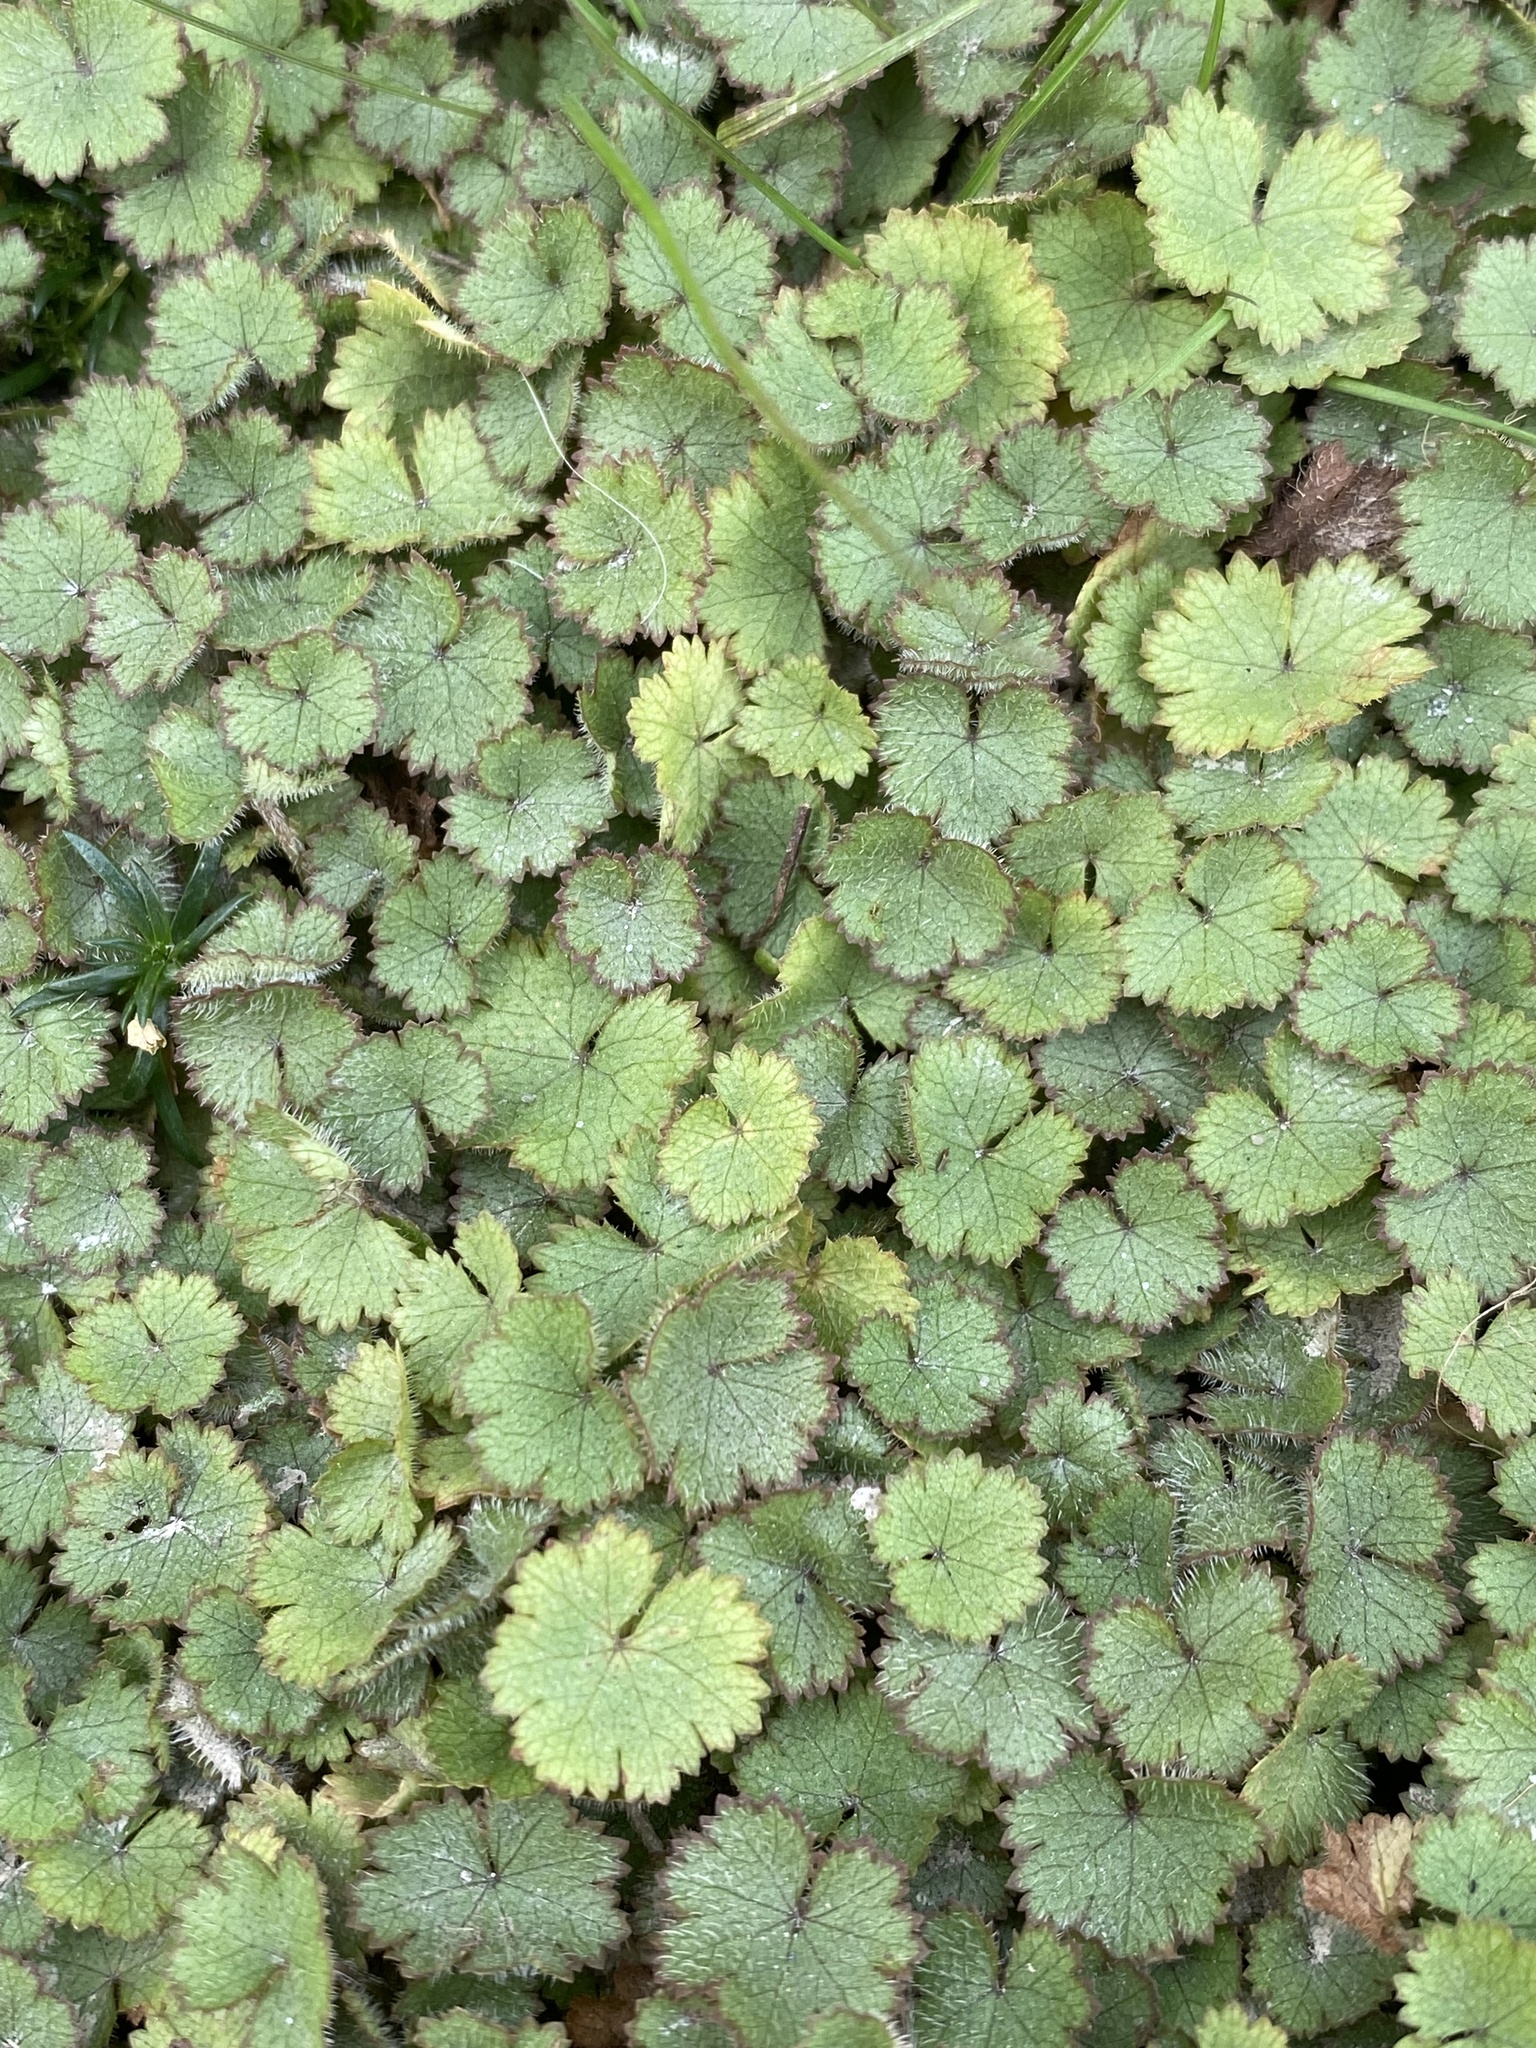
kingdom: Plantae
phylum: Tracheophyta
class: Magnoliopsida
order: Apiales
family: Araliaceae
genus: Hydrocotyle
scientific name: Hydrocotyle moschata
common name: Hairy pennywort
